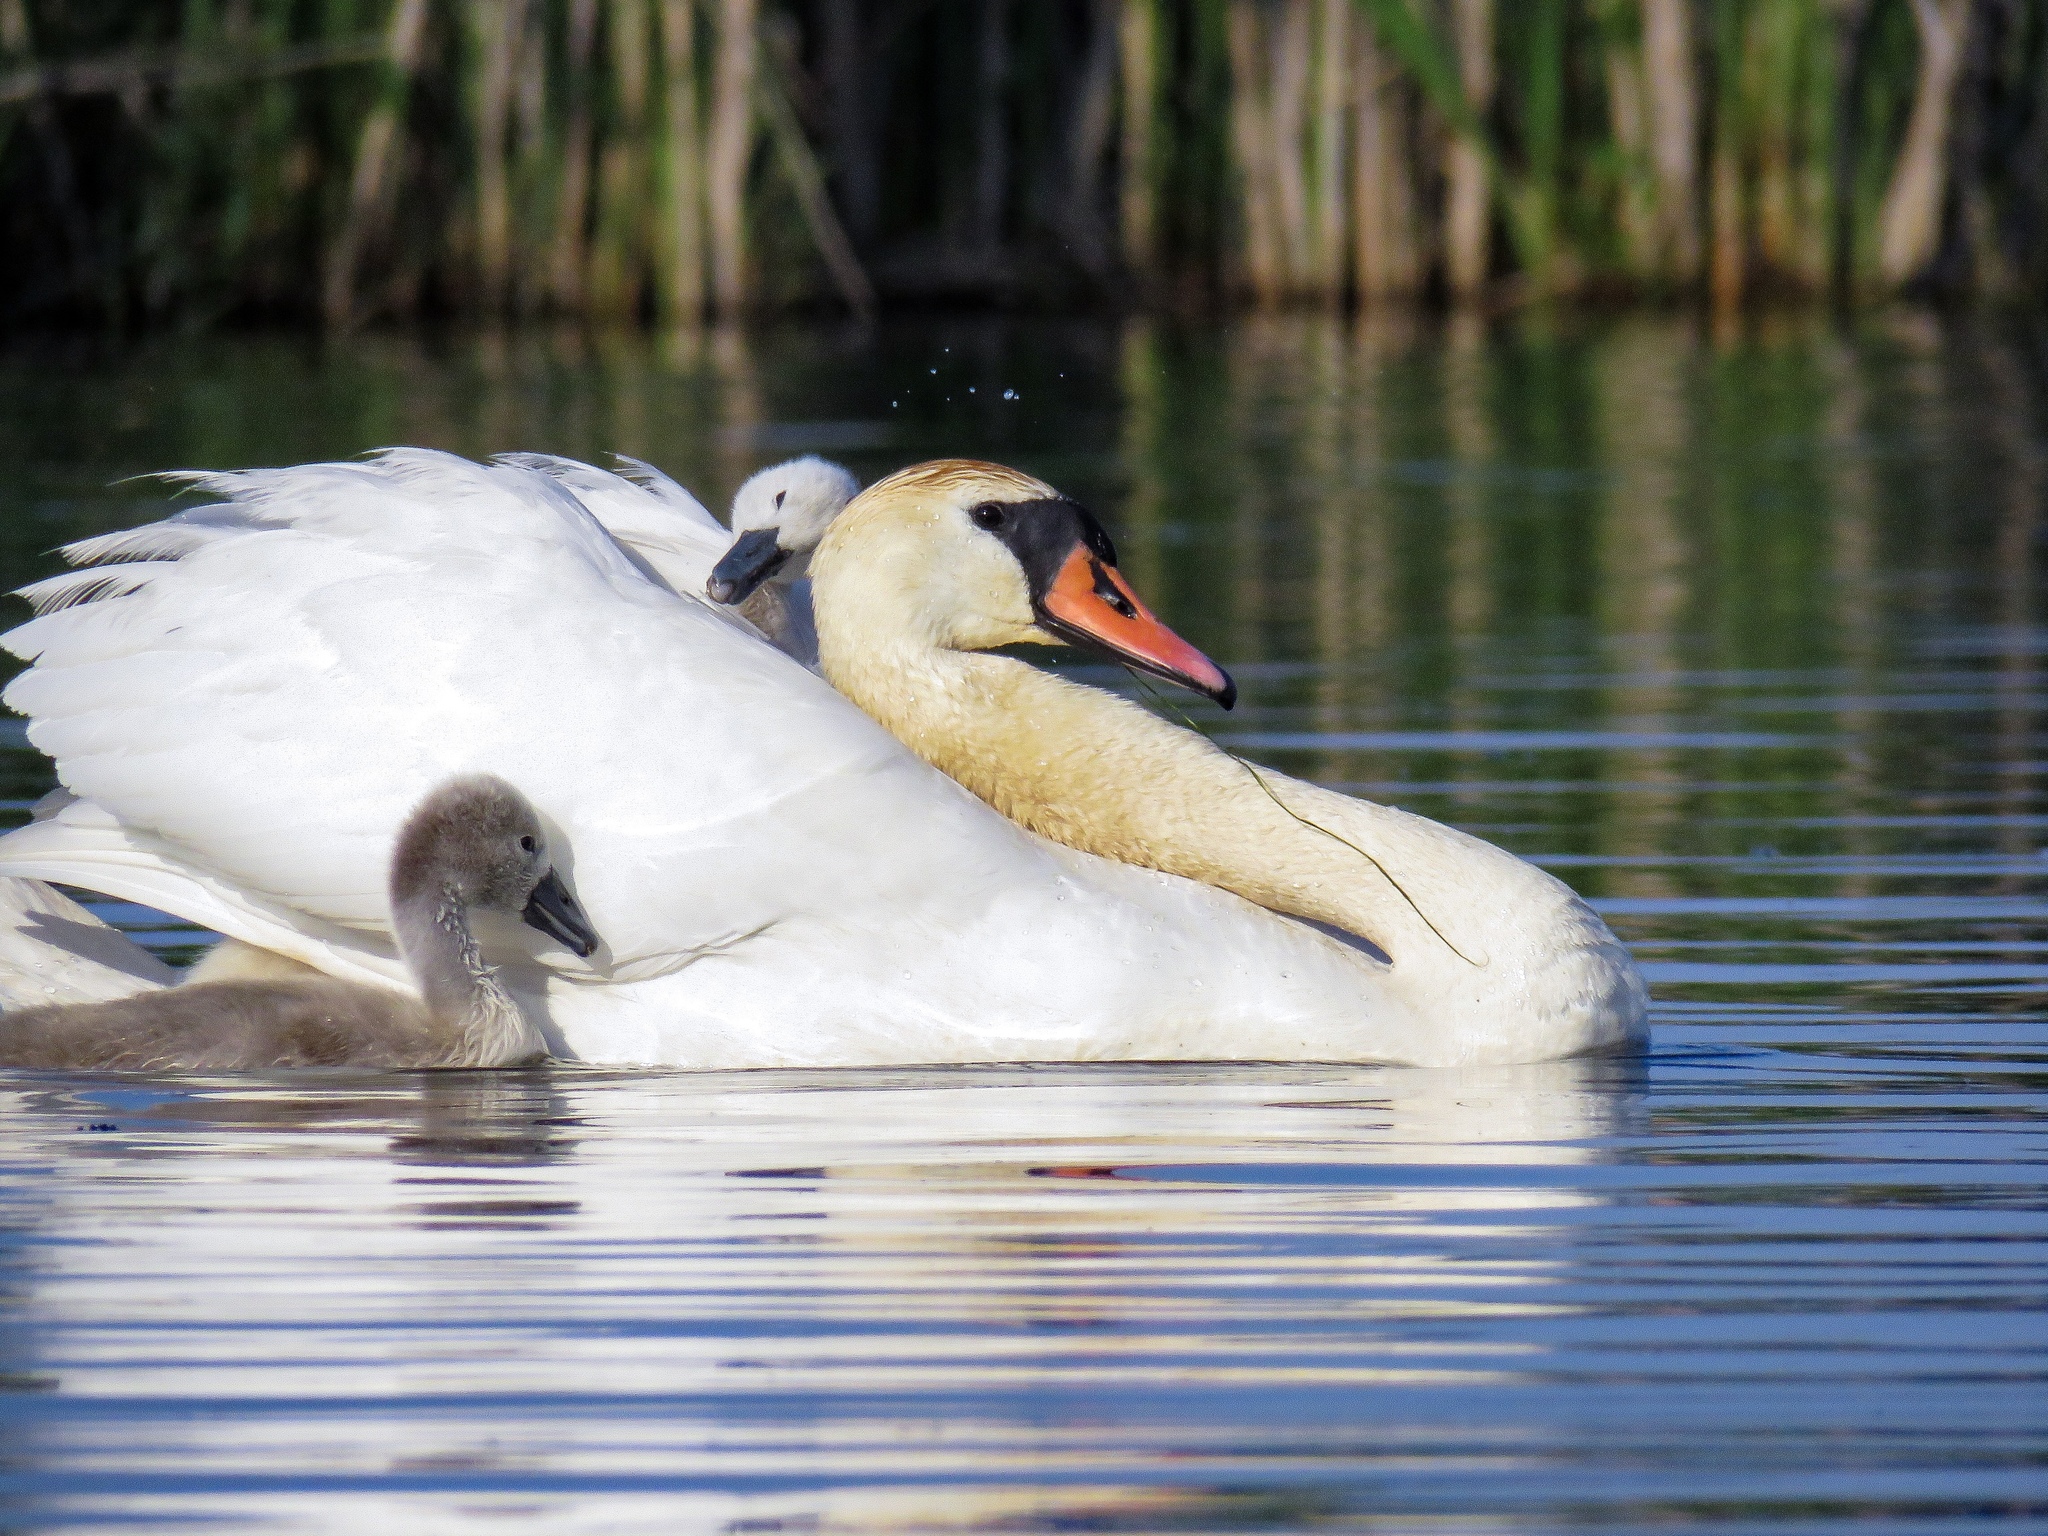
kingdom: Animalia
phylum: Chordata
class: Aves
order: Anseriformes
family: Anatidae
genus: Cygnus
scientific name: Cygnus olor
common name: Mute swan
